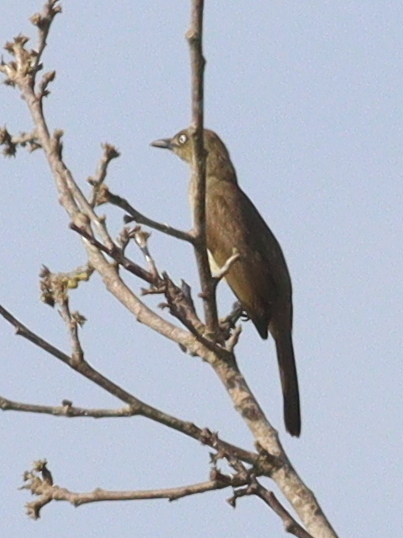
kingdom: Animalia
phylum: Chordata
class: Aves
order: Passeriformes
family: Pycnonotidae
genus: Andropadus
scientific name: Andropadus importunus
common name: Sombre greenbul
